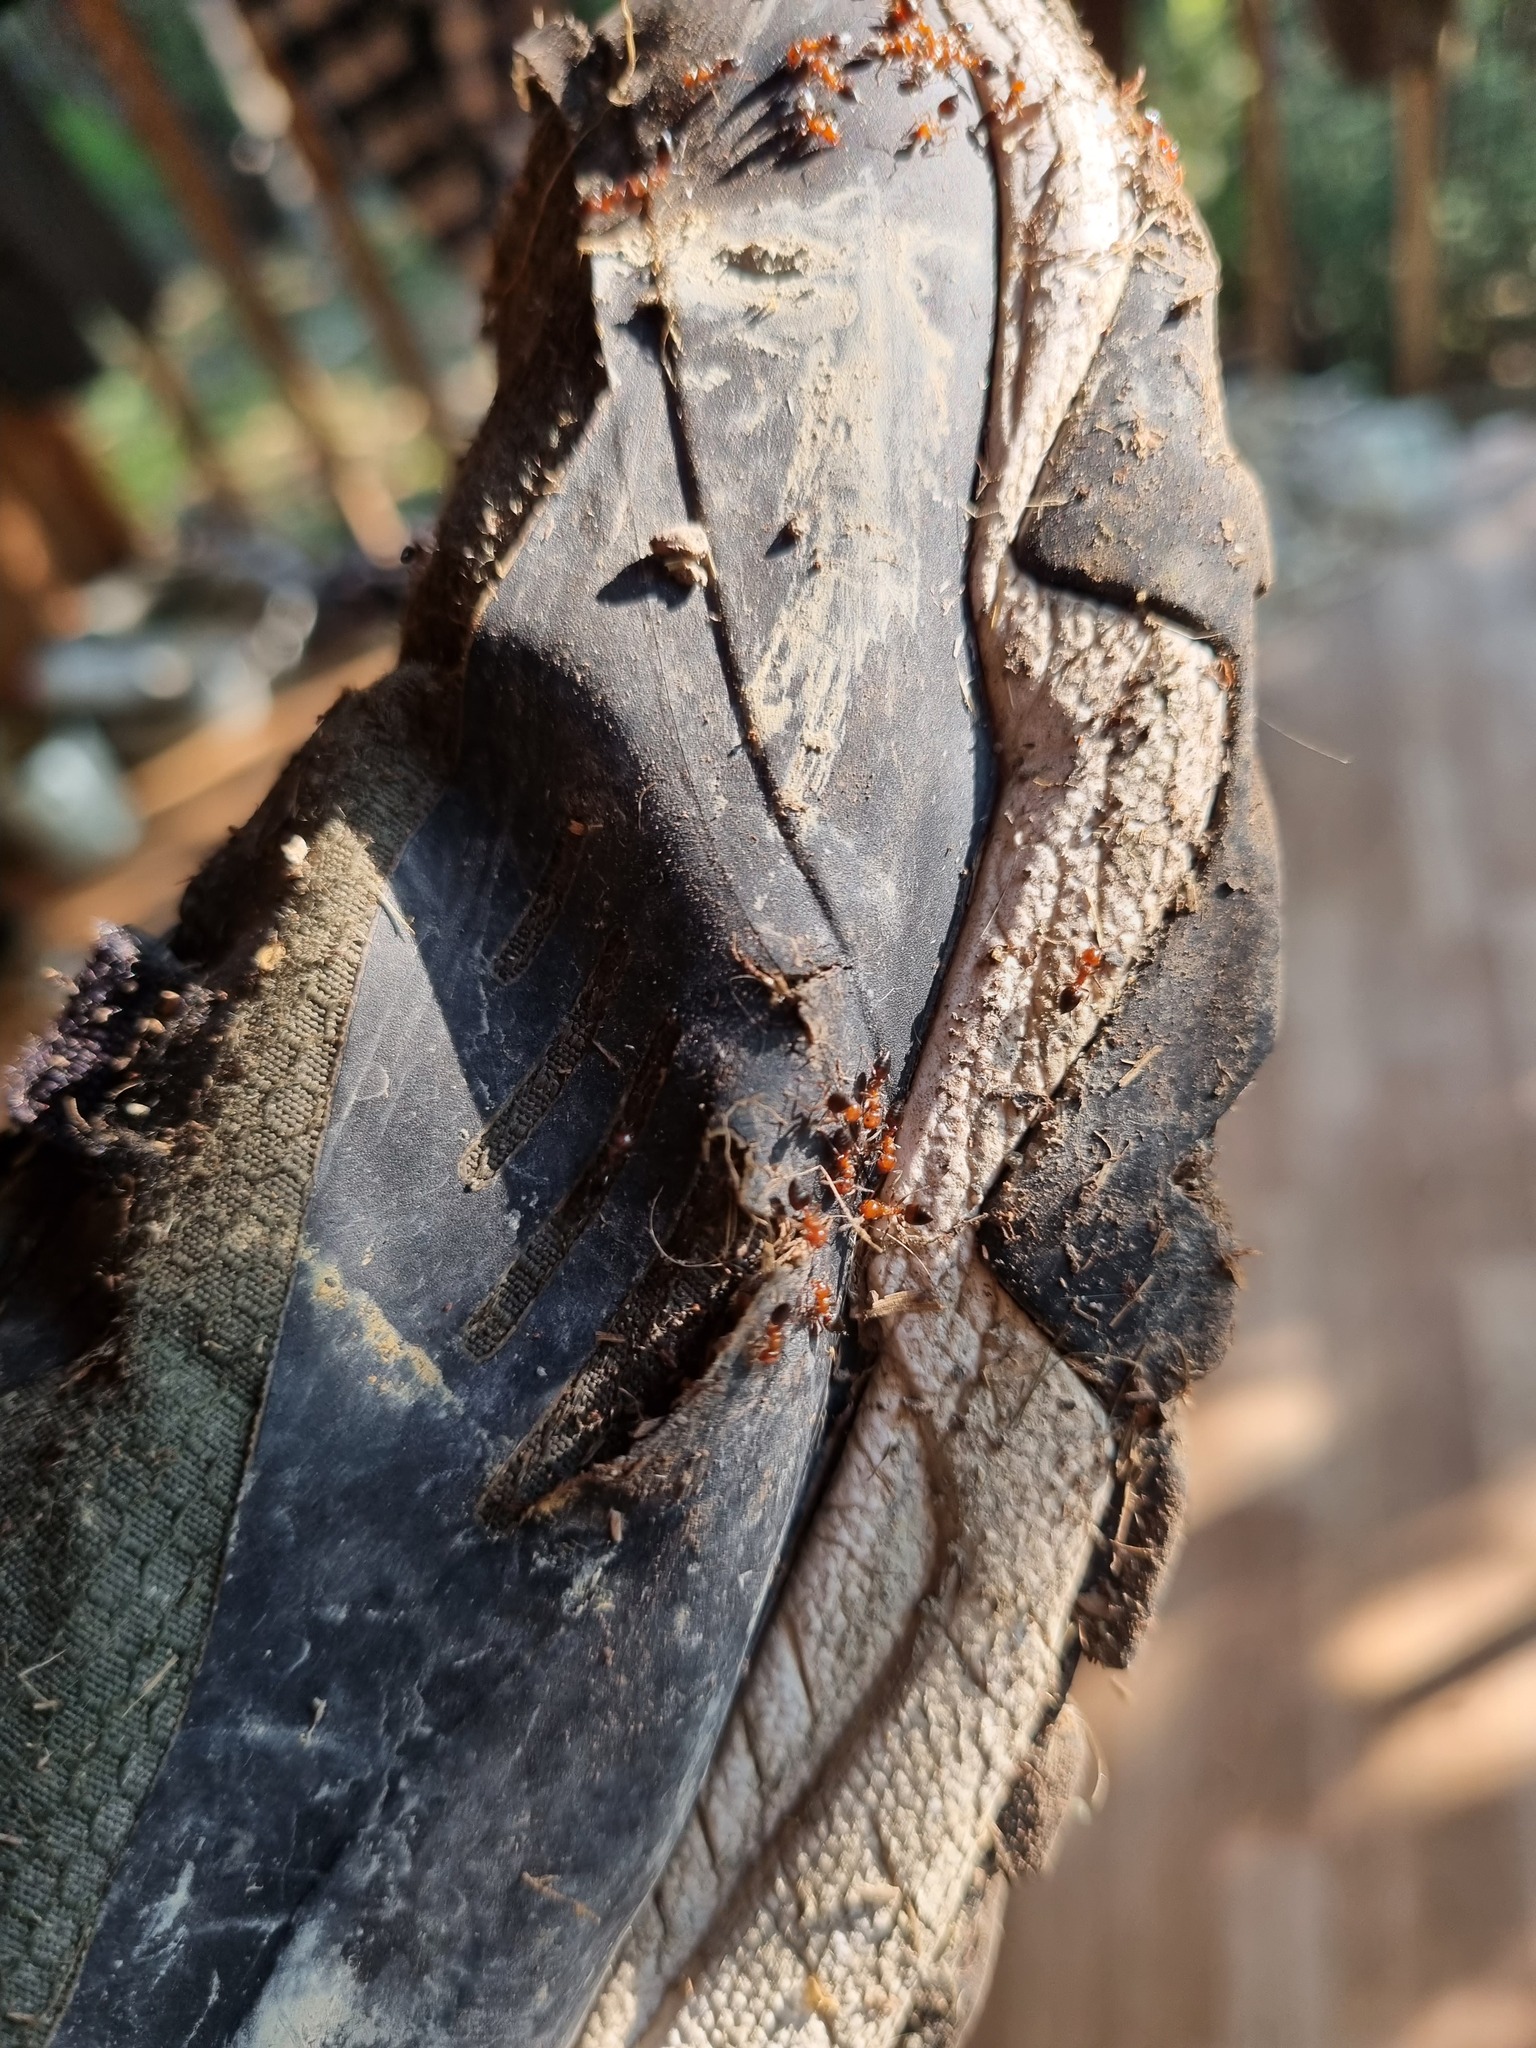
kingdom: Animalia
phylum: Arthropoda
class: Insecta
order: Hymenoptera
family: Formicidae
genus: Crematogaster
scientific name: Crematogaster schmidti
